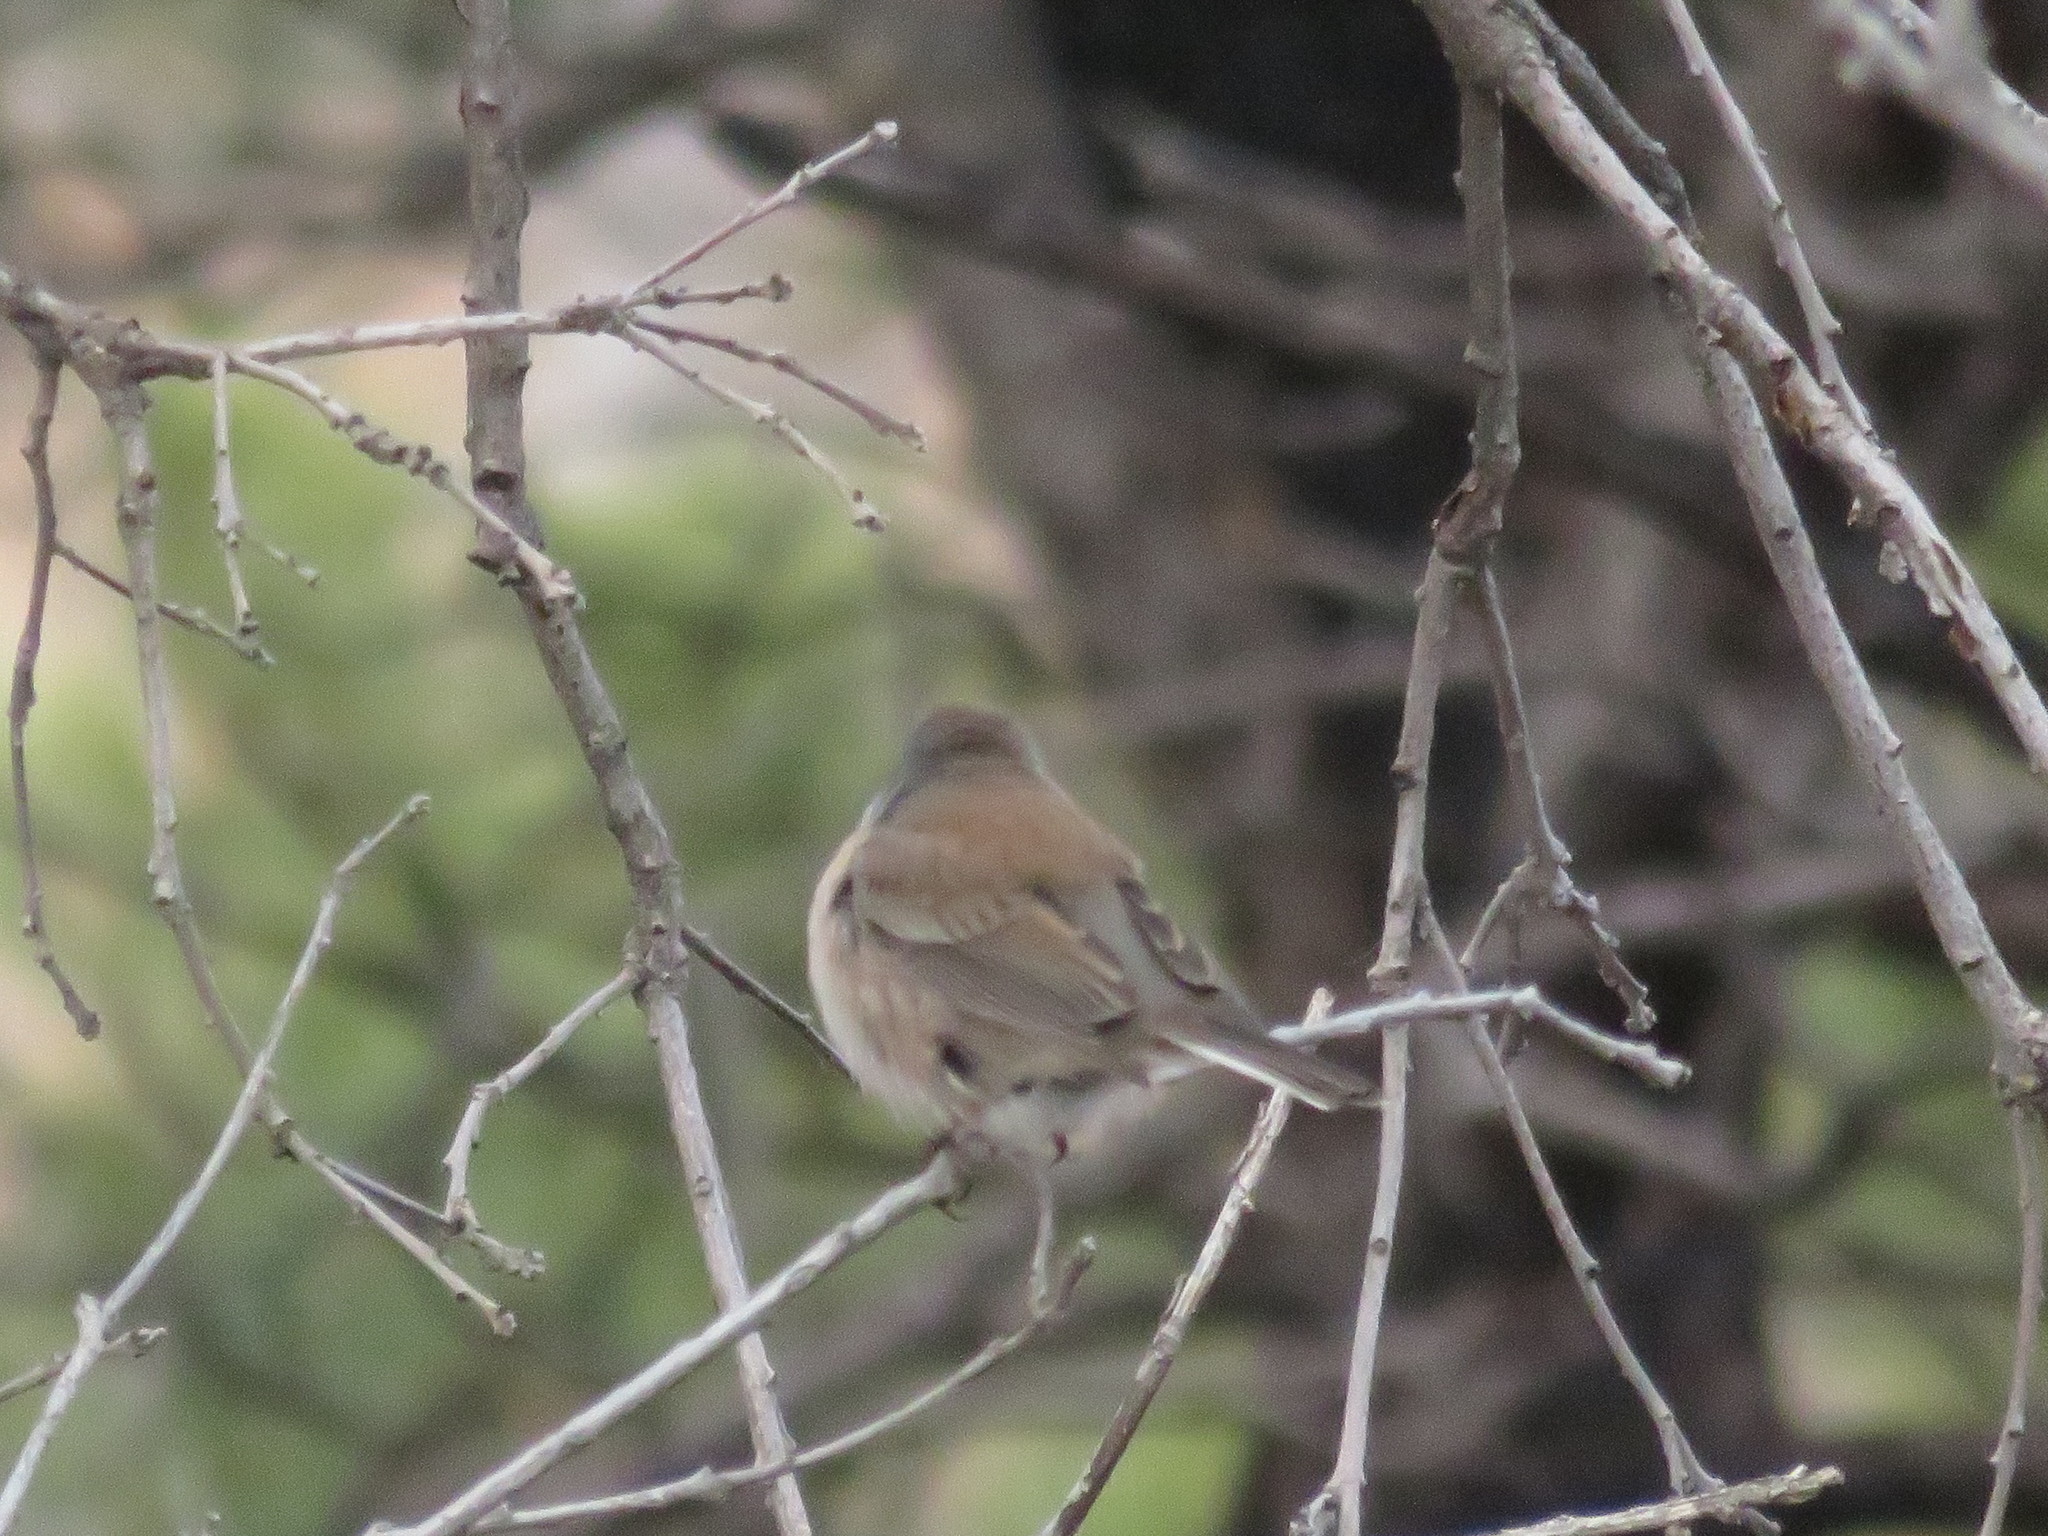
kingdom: Animalia
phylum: Chordata
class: Aves
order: Passeriformes
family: Passerellidae
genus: Junco
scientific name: Junco hyemalis
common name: Dark-eyed junco
